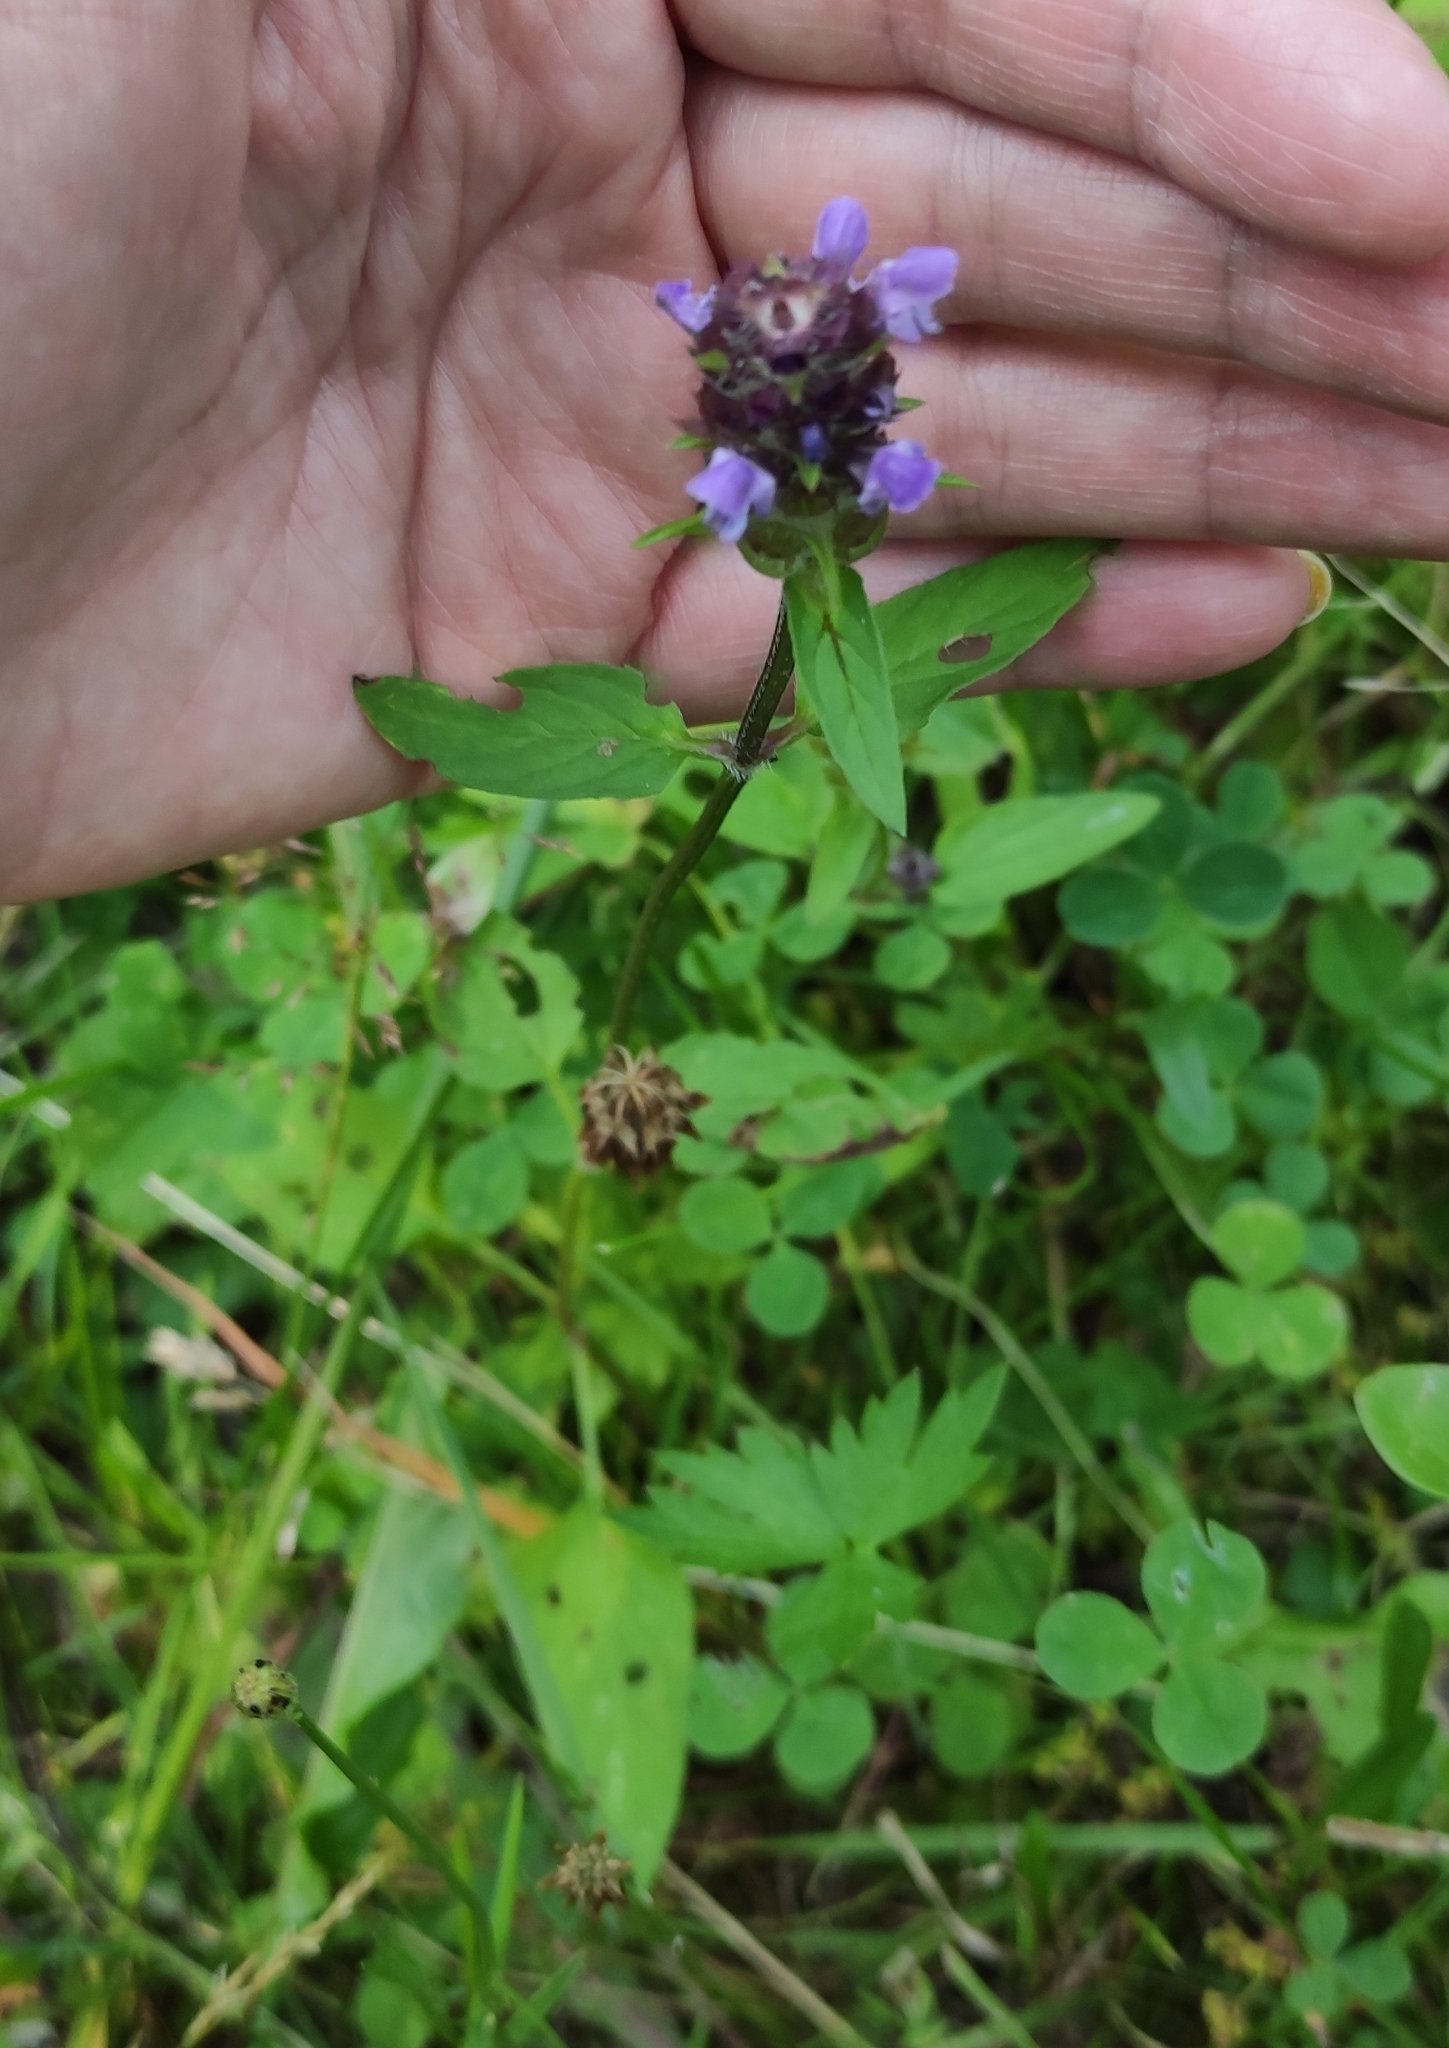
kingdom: Plantae
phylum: Tracheophyta
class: Magnoliopsida
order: Lamiales
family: Lamiaceae
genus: Prunella
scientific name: Prunella vulgaris
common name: Heal-all
